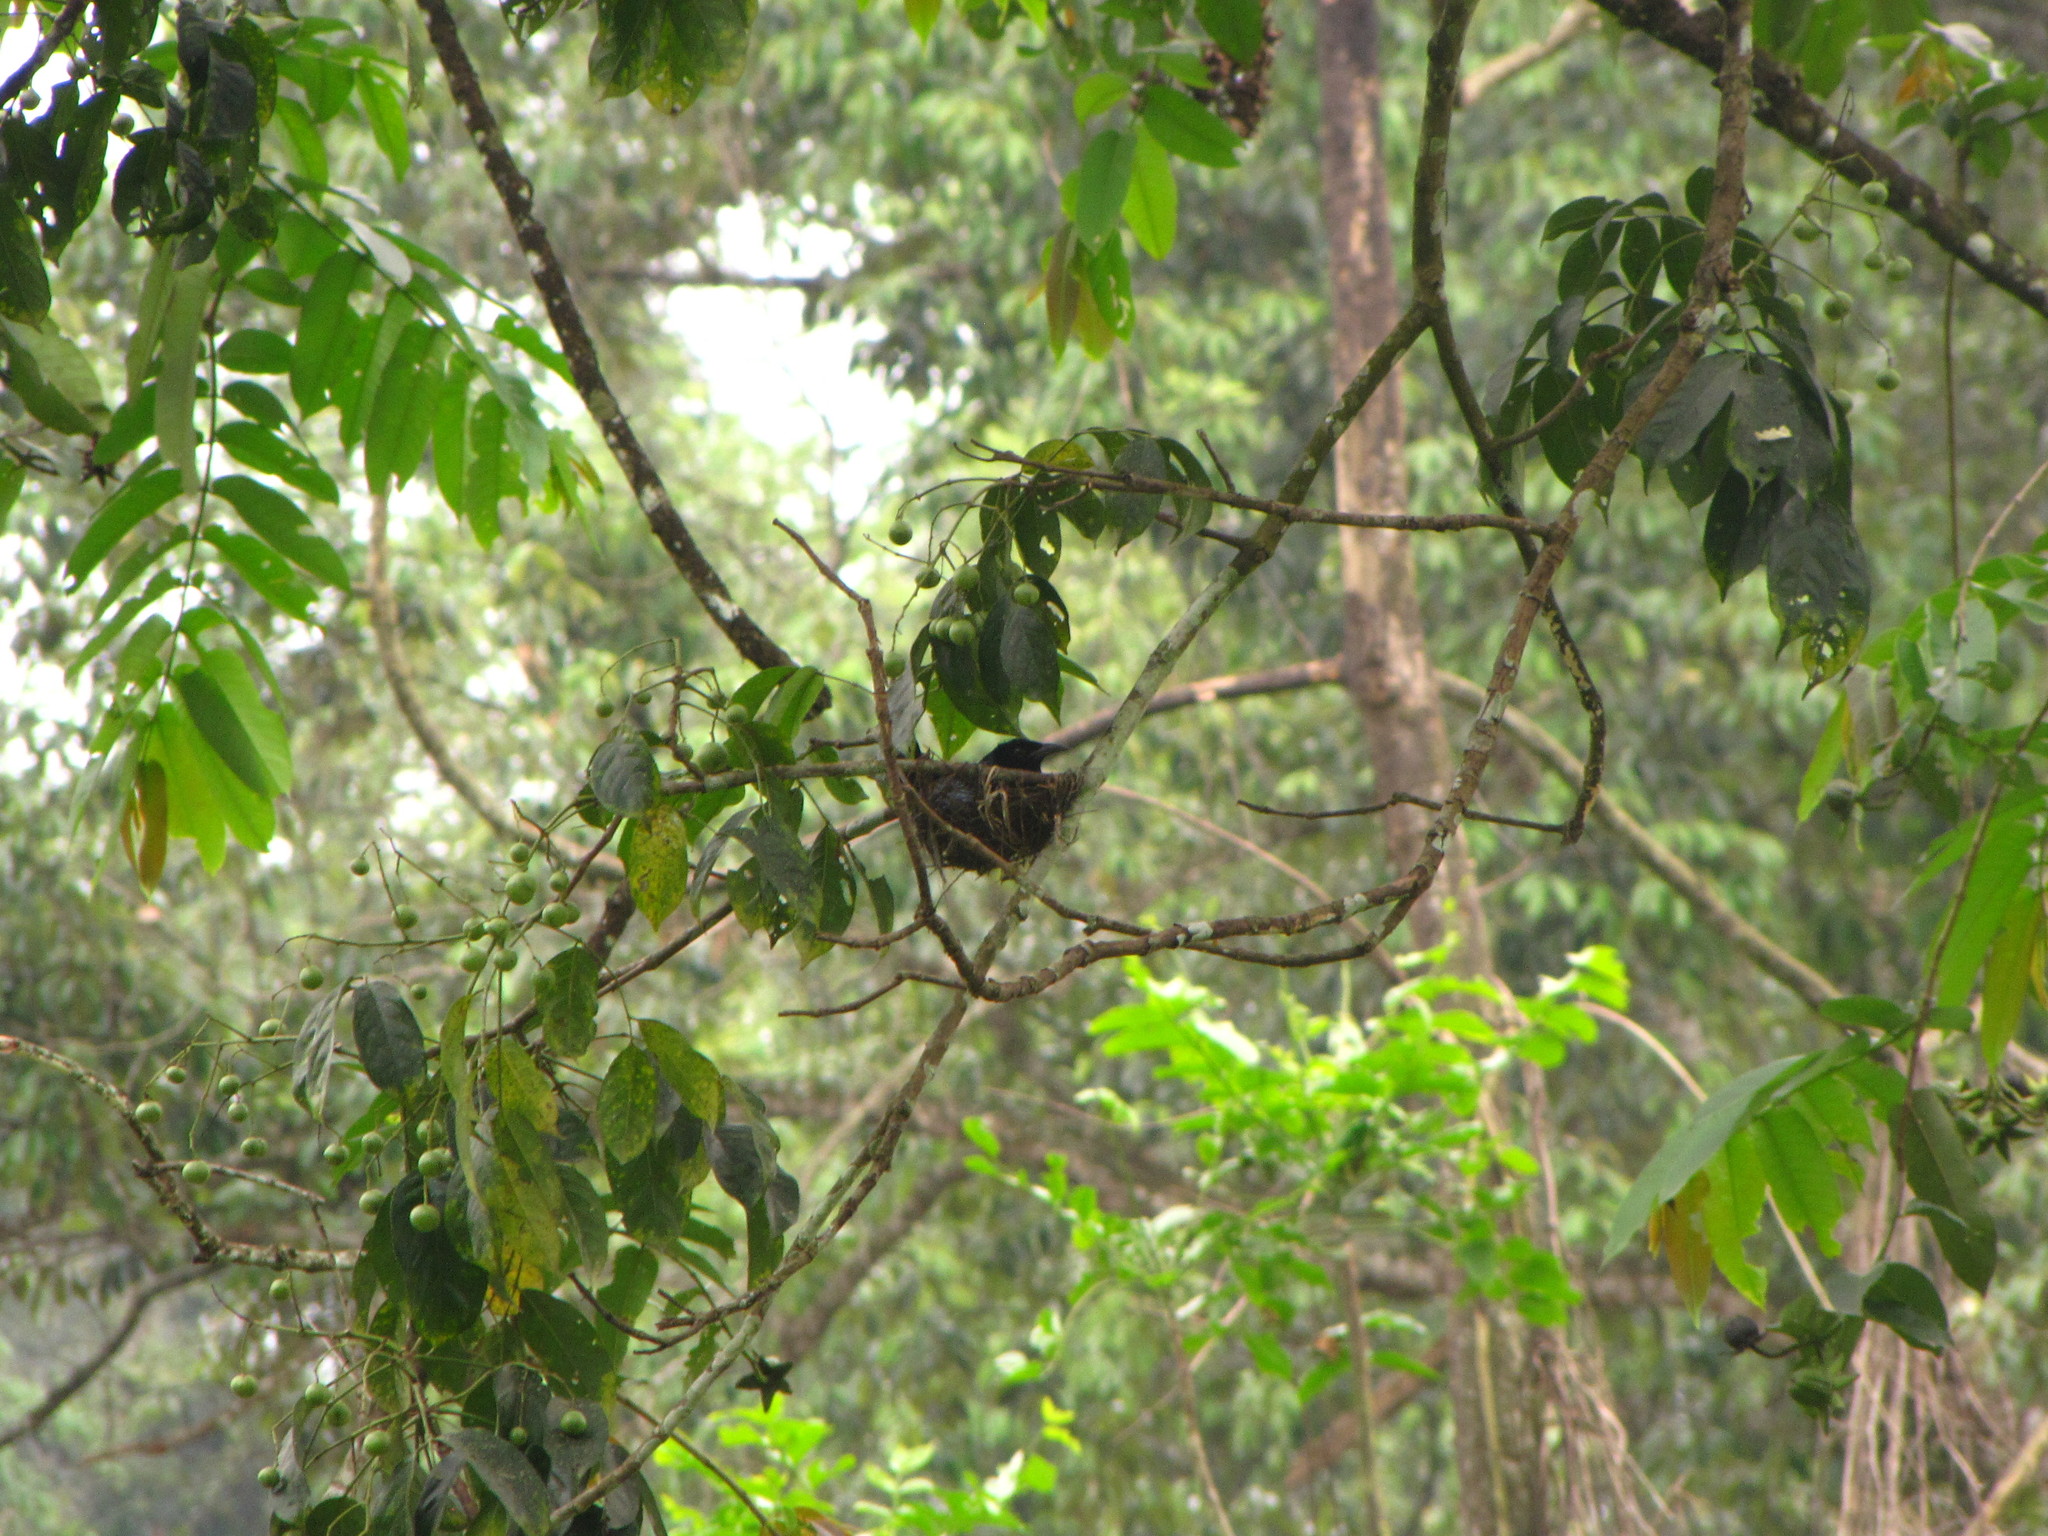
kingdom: Animalia
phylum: Chordata
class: Aves
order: Passeriformes
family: Dicruridae
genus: Dicrurus
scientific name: Dicrurus hottentottus
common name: Hair-crested drongo
